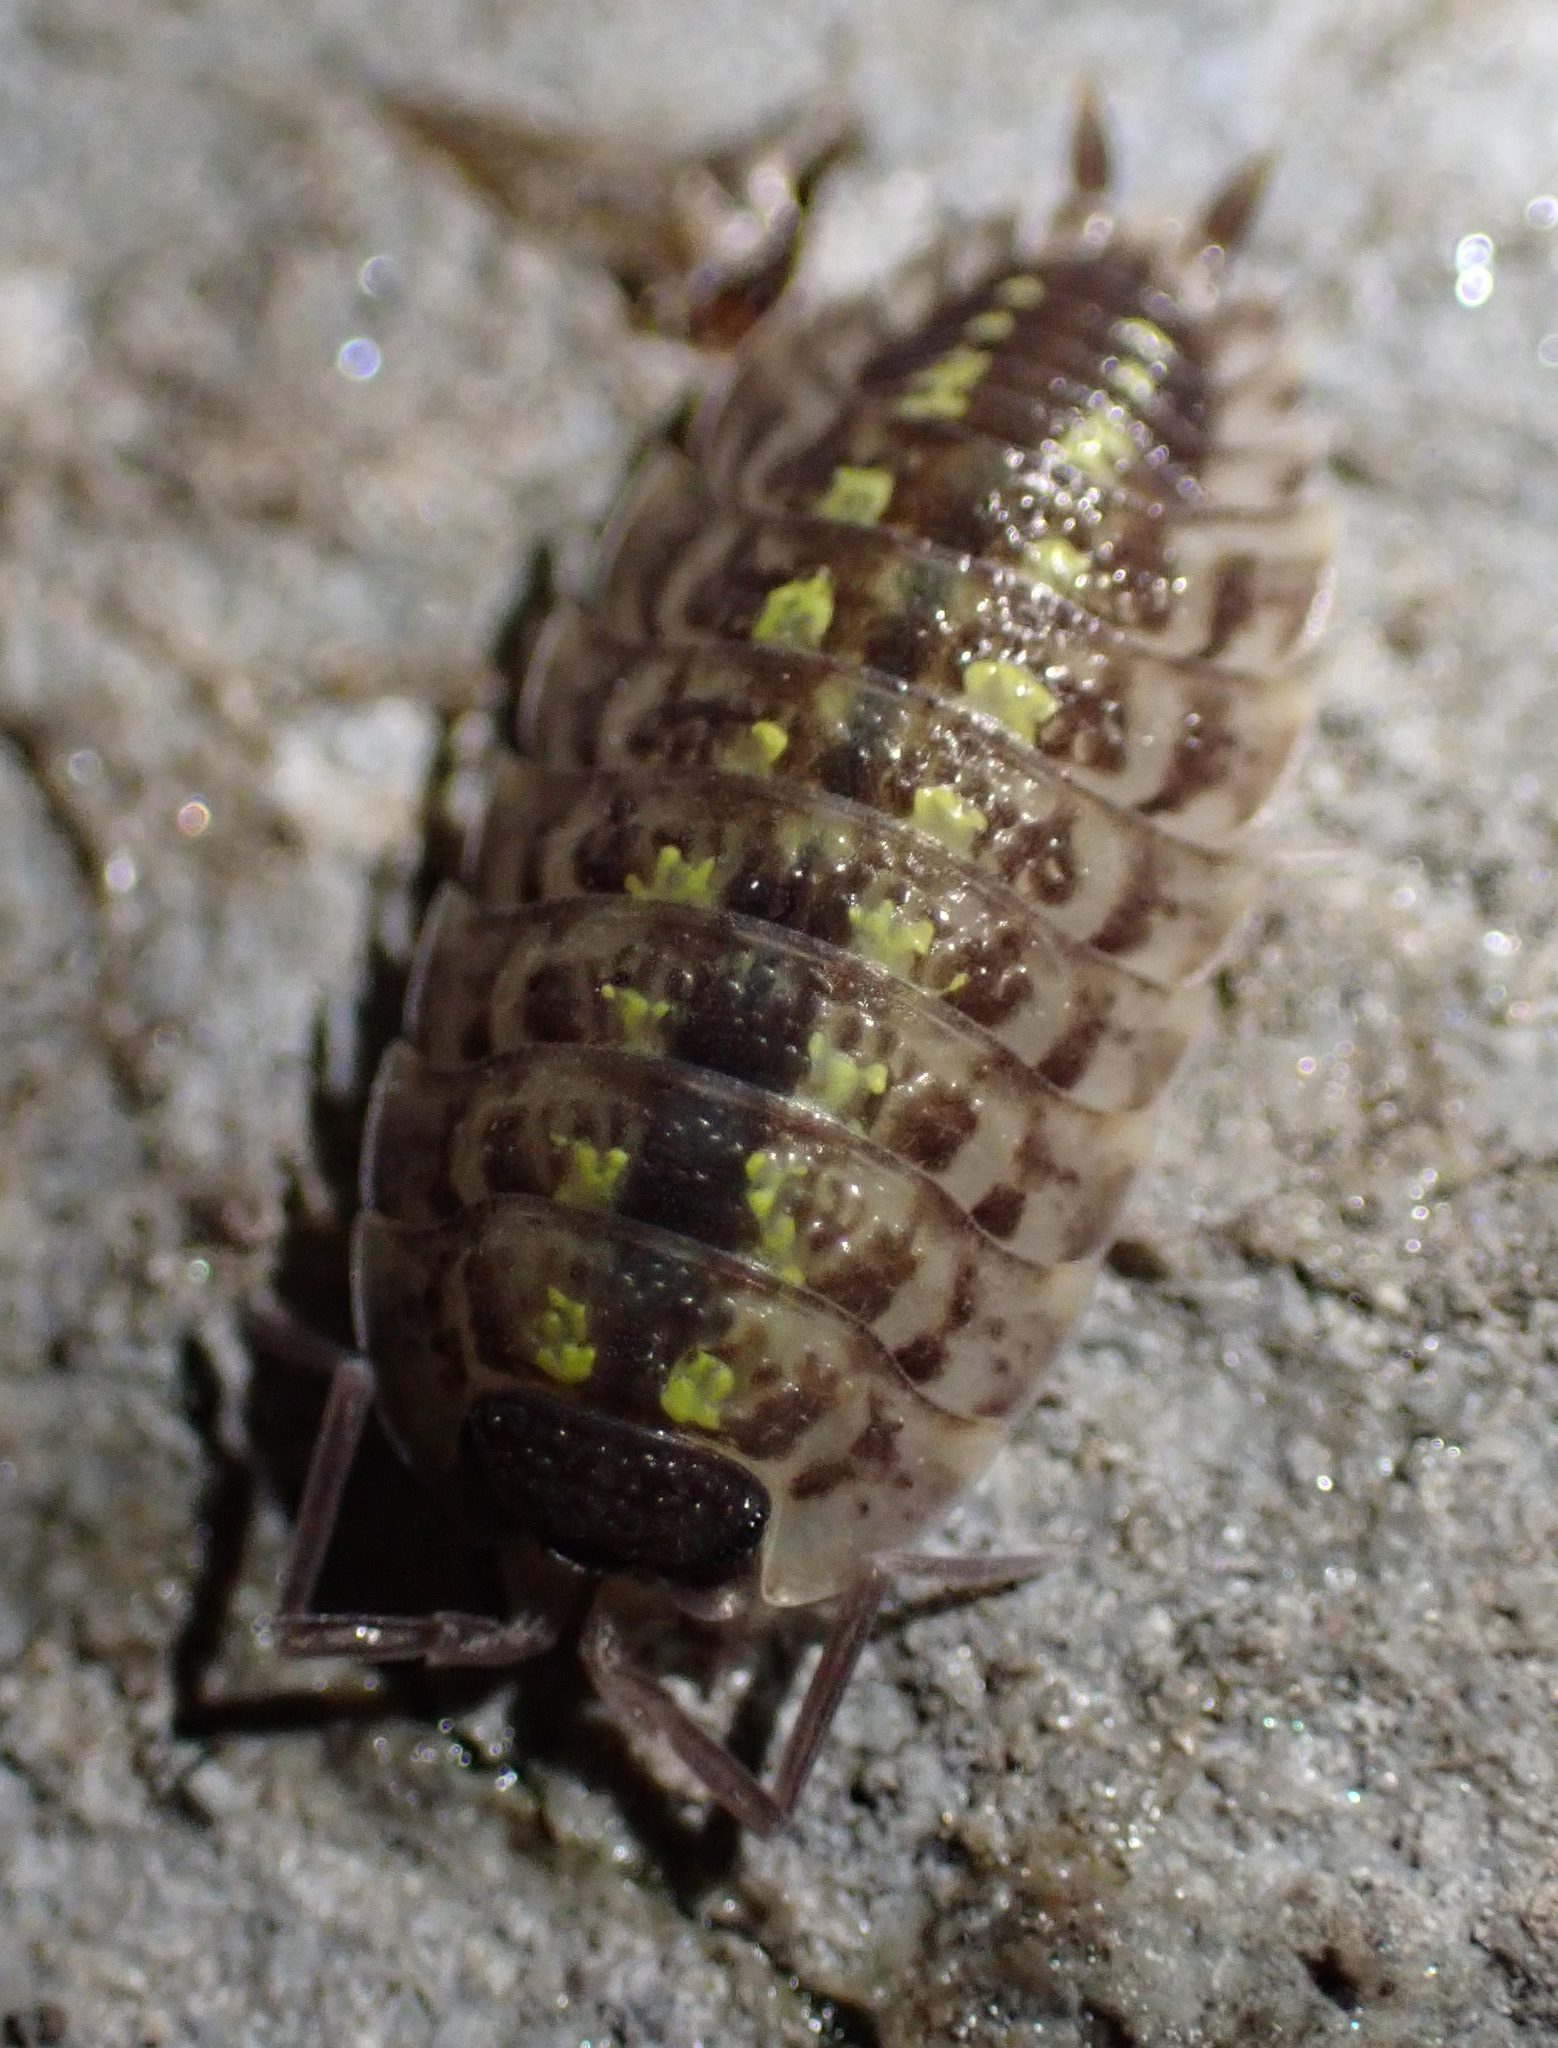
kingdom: Animalia
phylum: Arthropoda
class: Malacostraca
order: Isopoda
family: Porcellionidae
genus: Porcellio
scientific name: Porcellio spinicornis
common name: Painted woodlouse
